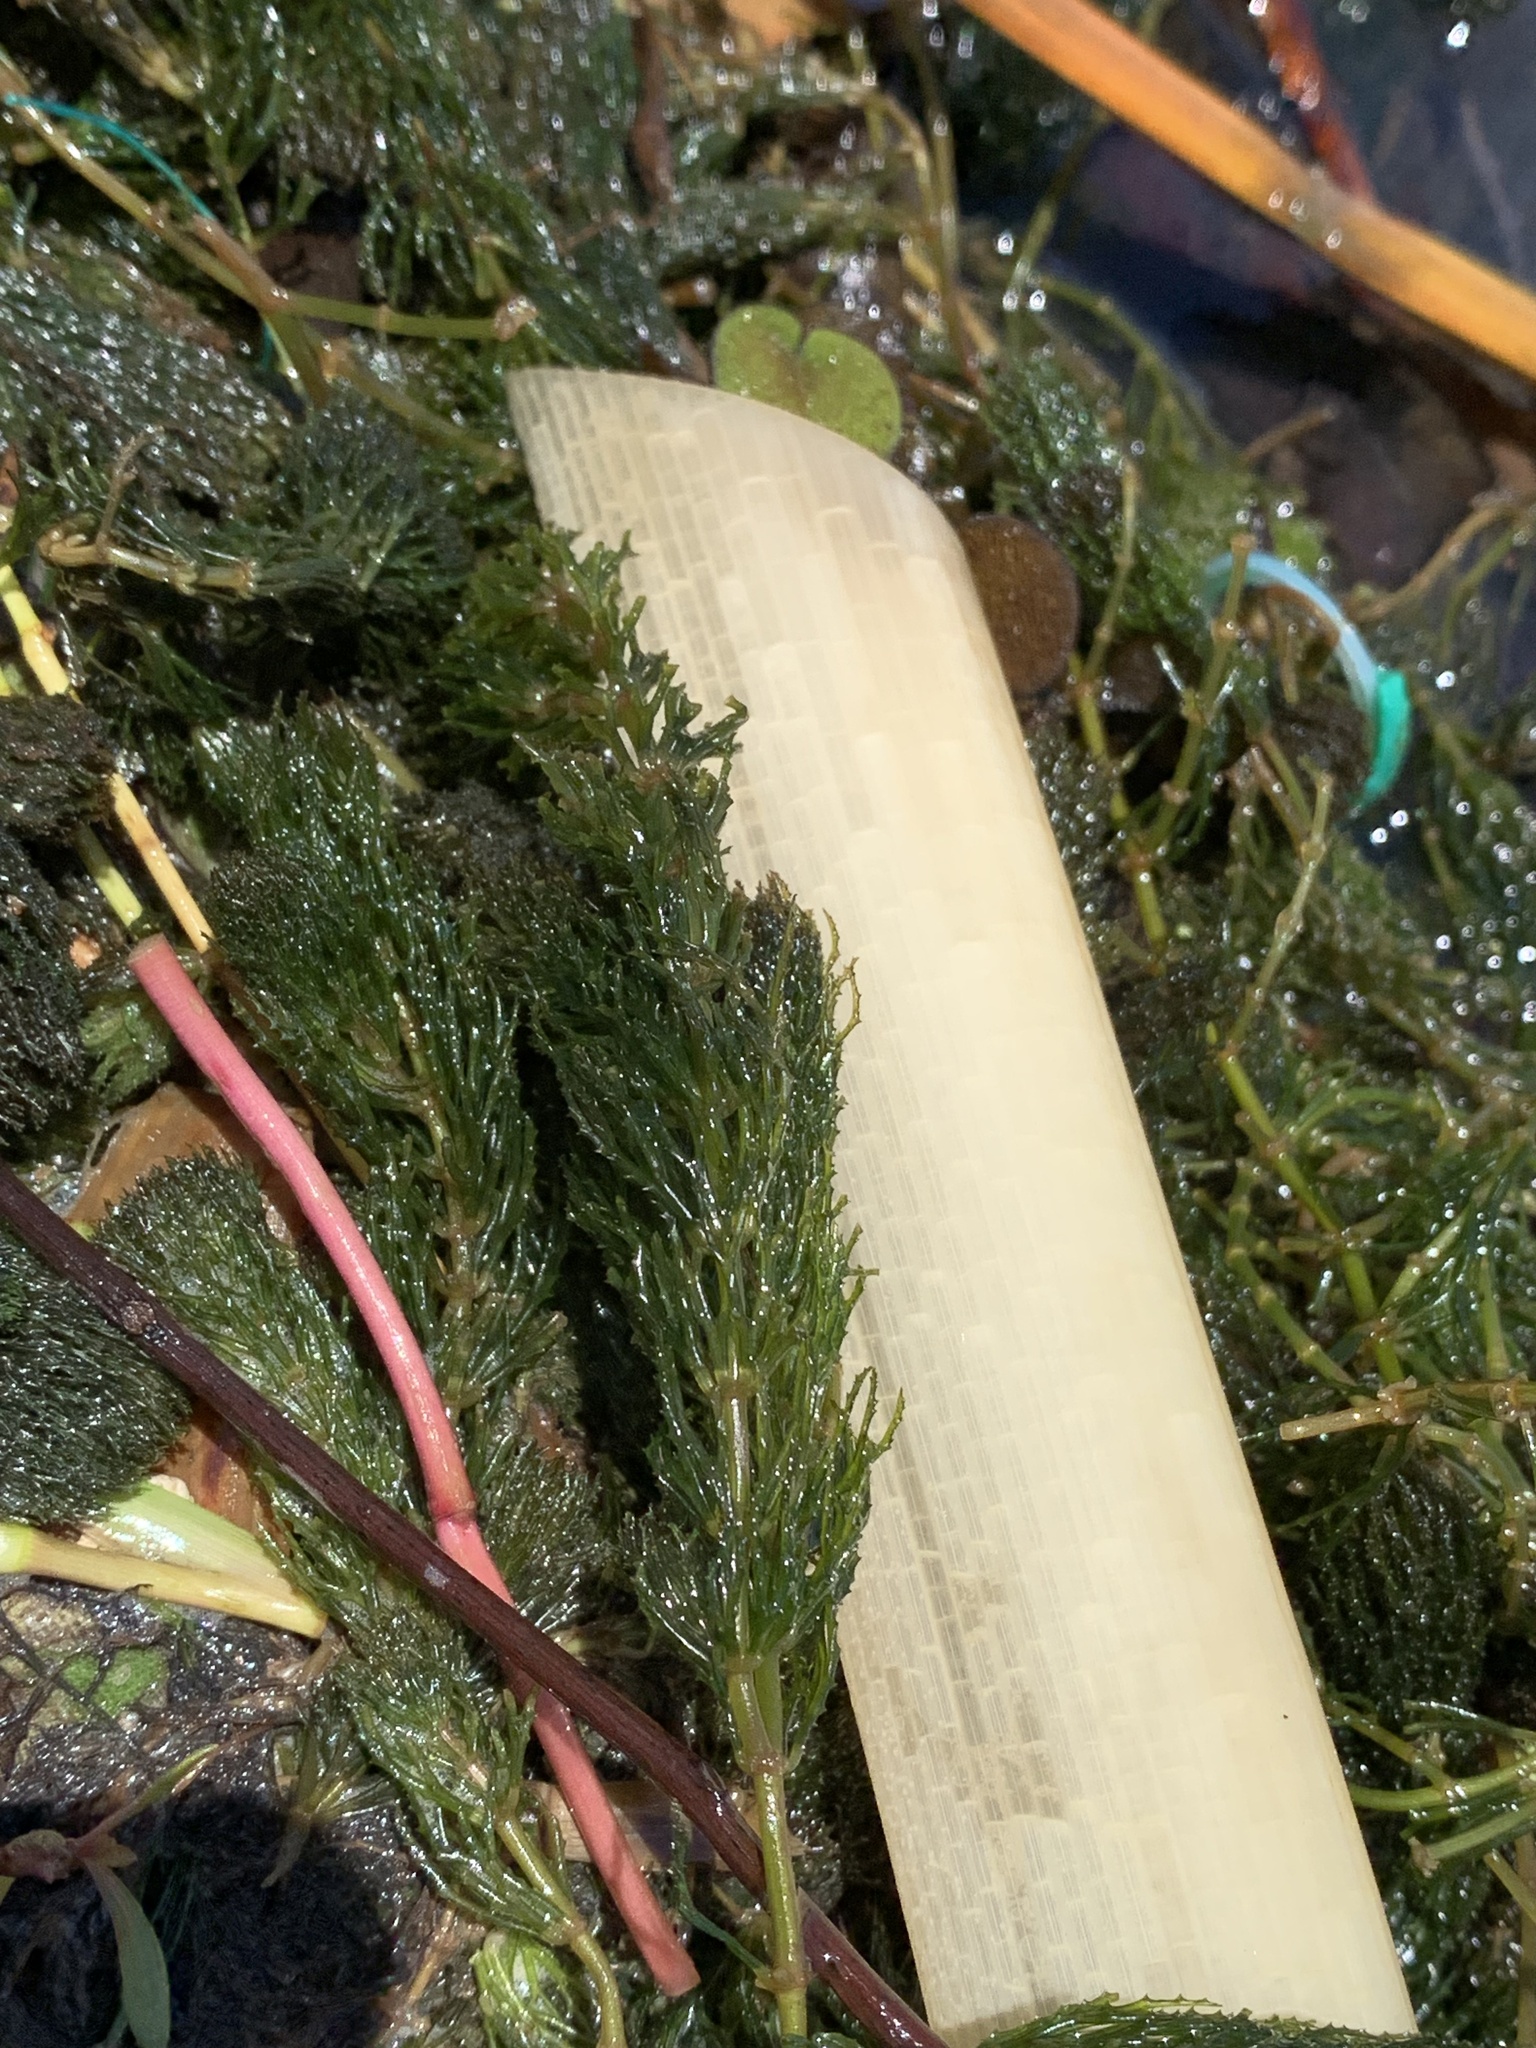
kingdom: Plantae
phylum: Tracheophyta
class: Magnoliopsida
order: Ceratophyllales
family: Ceratophyllaceae
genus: Ceratophyllum
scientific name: Ceratophyllum demersum
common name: Rigid hornwort
